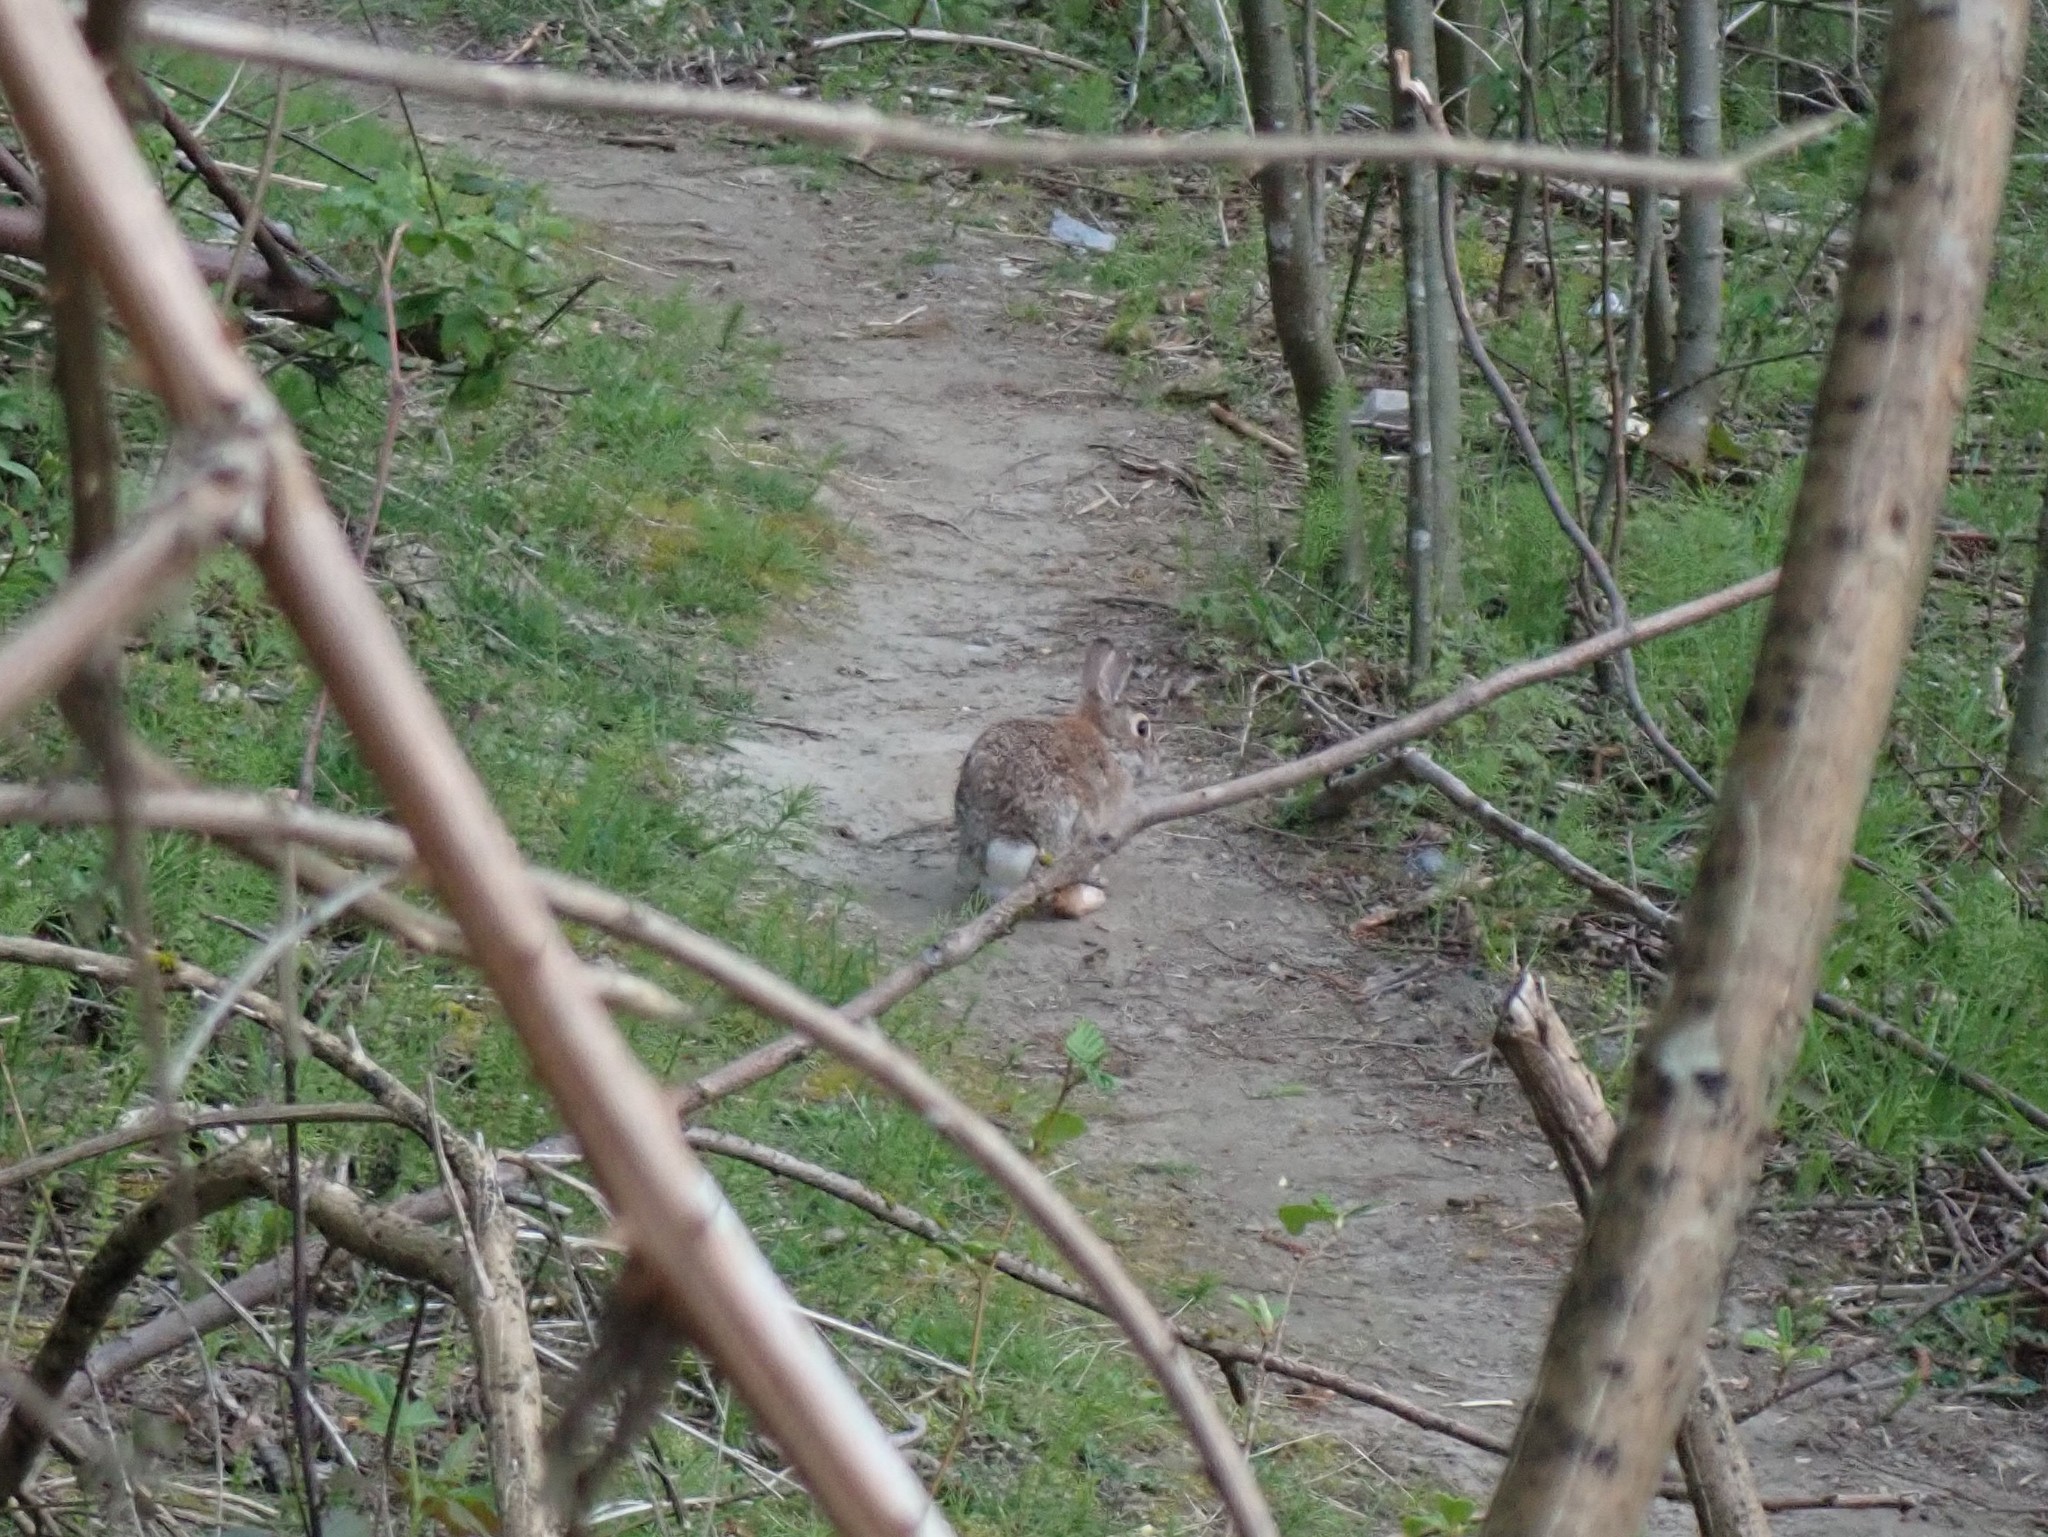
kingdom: Animalia
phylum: Chordata
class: Mammalia
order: Lagomorpha
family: Leporidae
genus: Sylvilagus
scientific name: Sylvilagus floridanus
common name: Eastern cottontail
